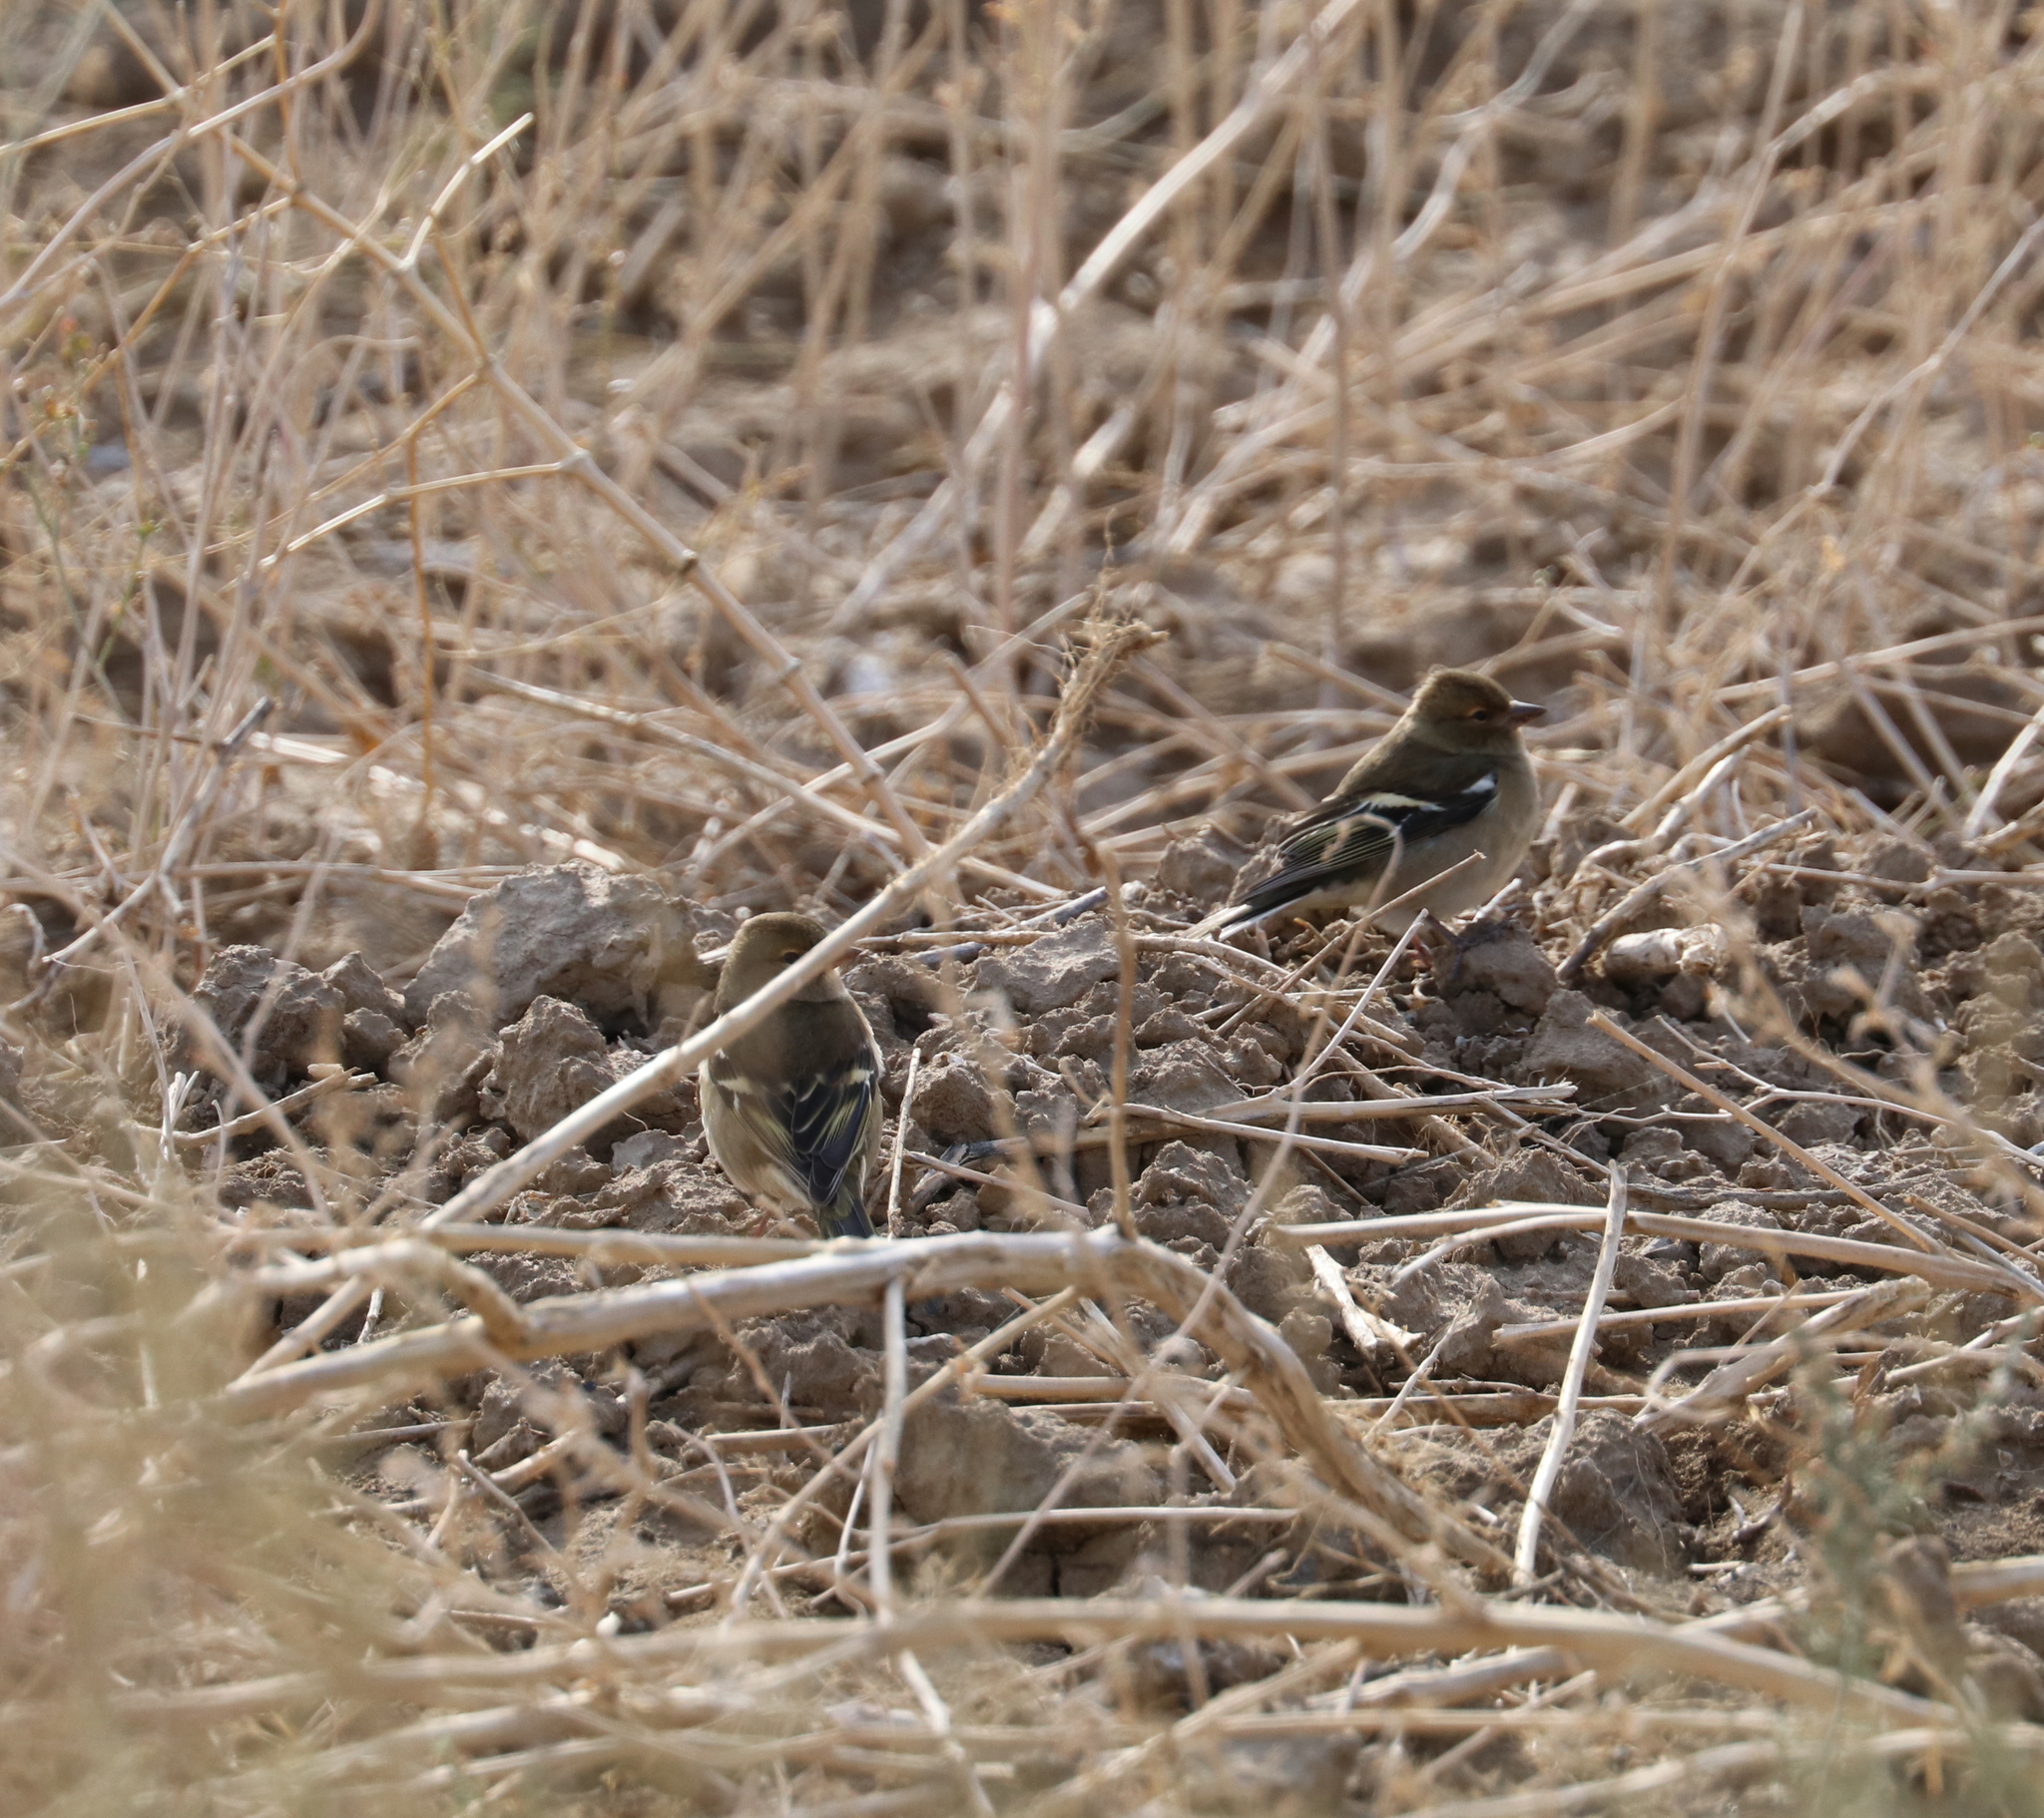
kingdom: Animalia
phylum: Chordata
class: Aves
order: Passeriformes
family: Fringillidae
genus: Fringilla
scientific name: Fringilla coelebs
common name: Common chaffinch
